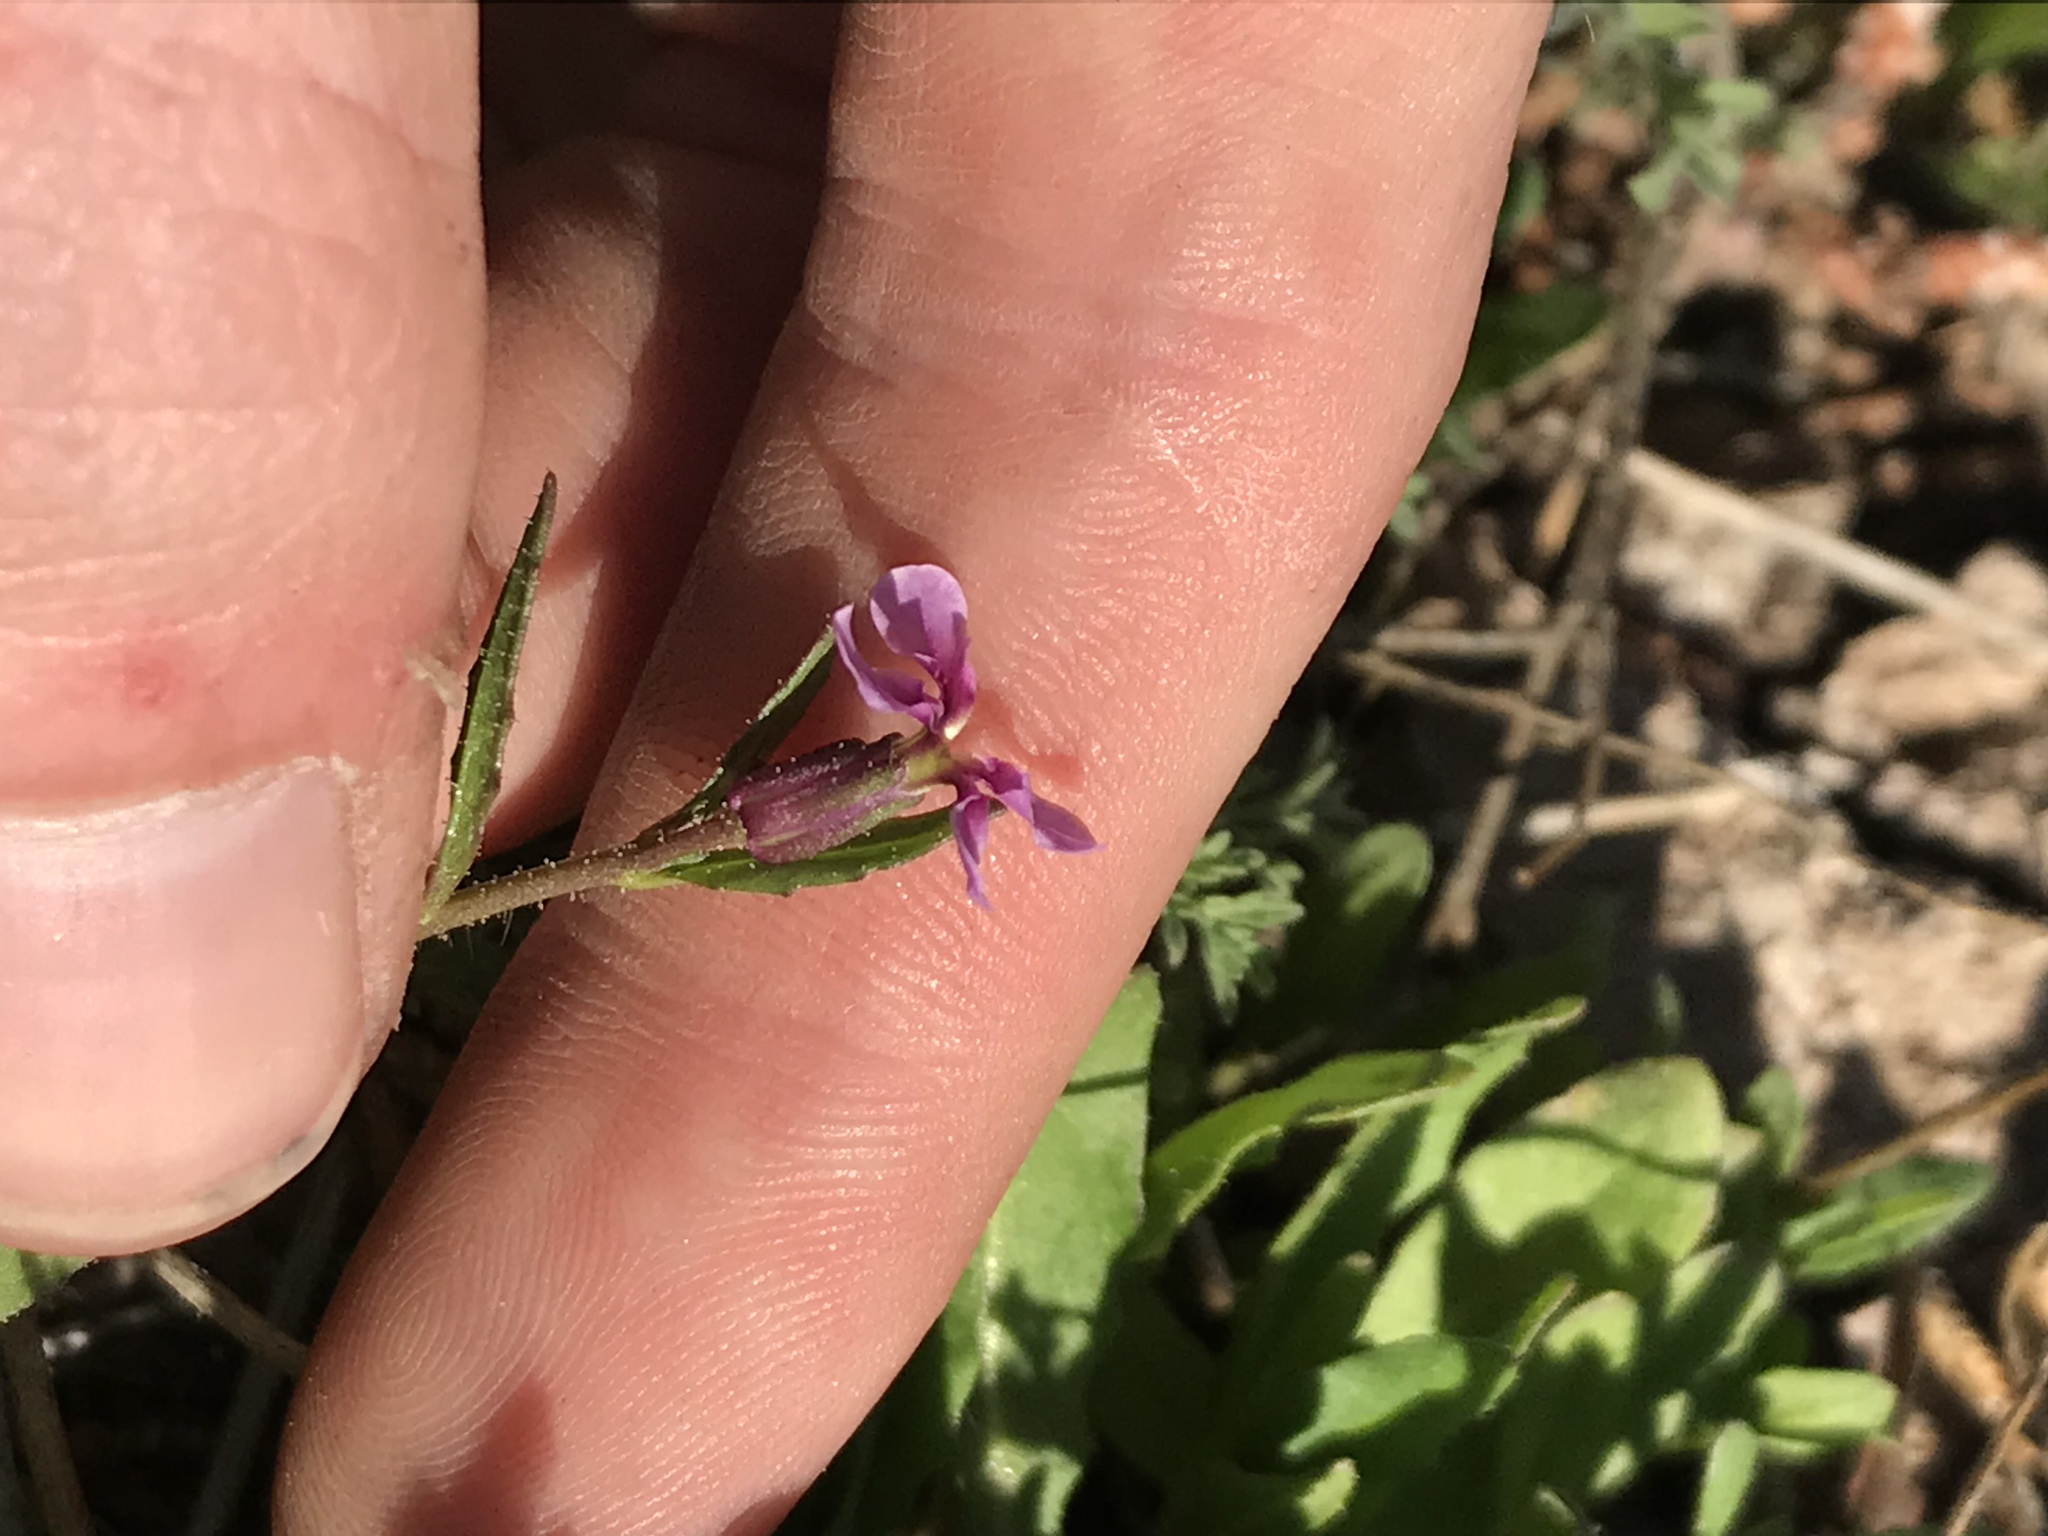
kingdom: Plantae
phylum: Tracheophyta
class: Magnoliopsida
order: Brassicales
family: Brassicaceae
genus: Chorispora
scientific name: Chorispora tenella
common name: Crossflower
